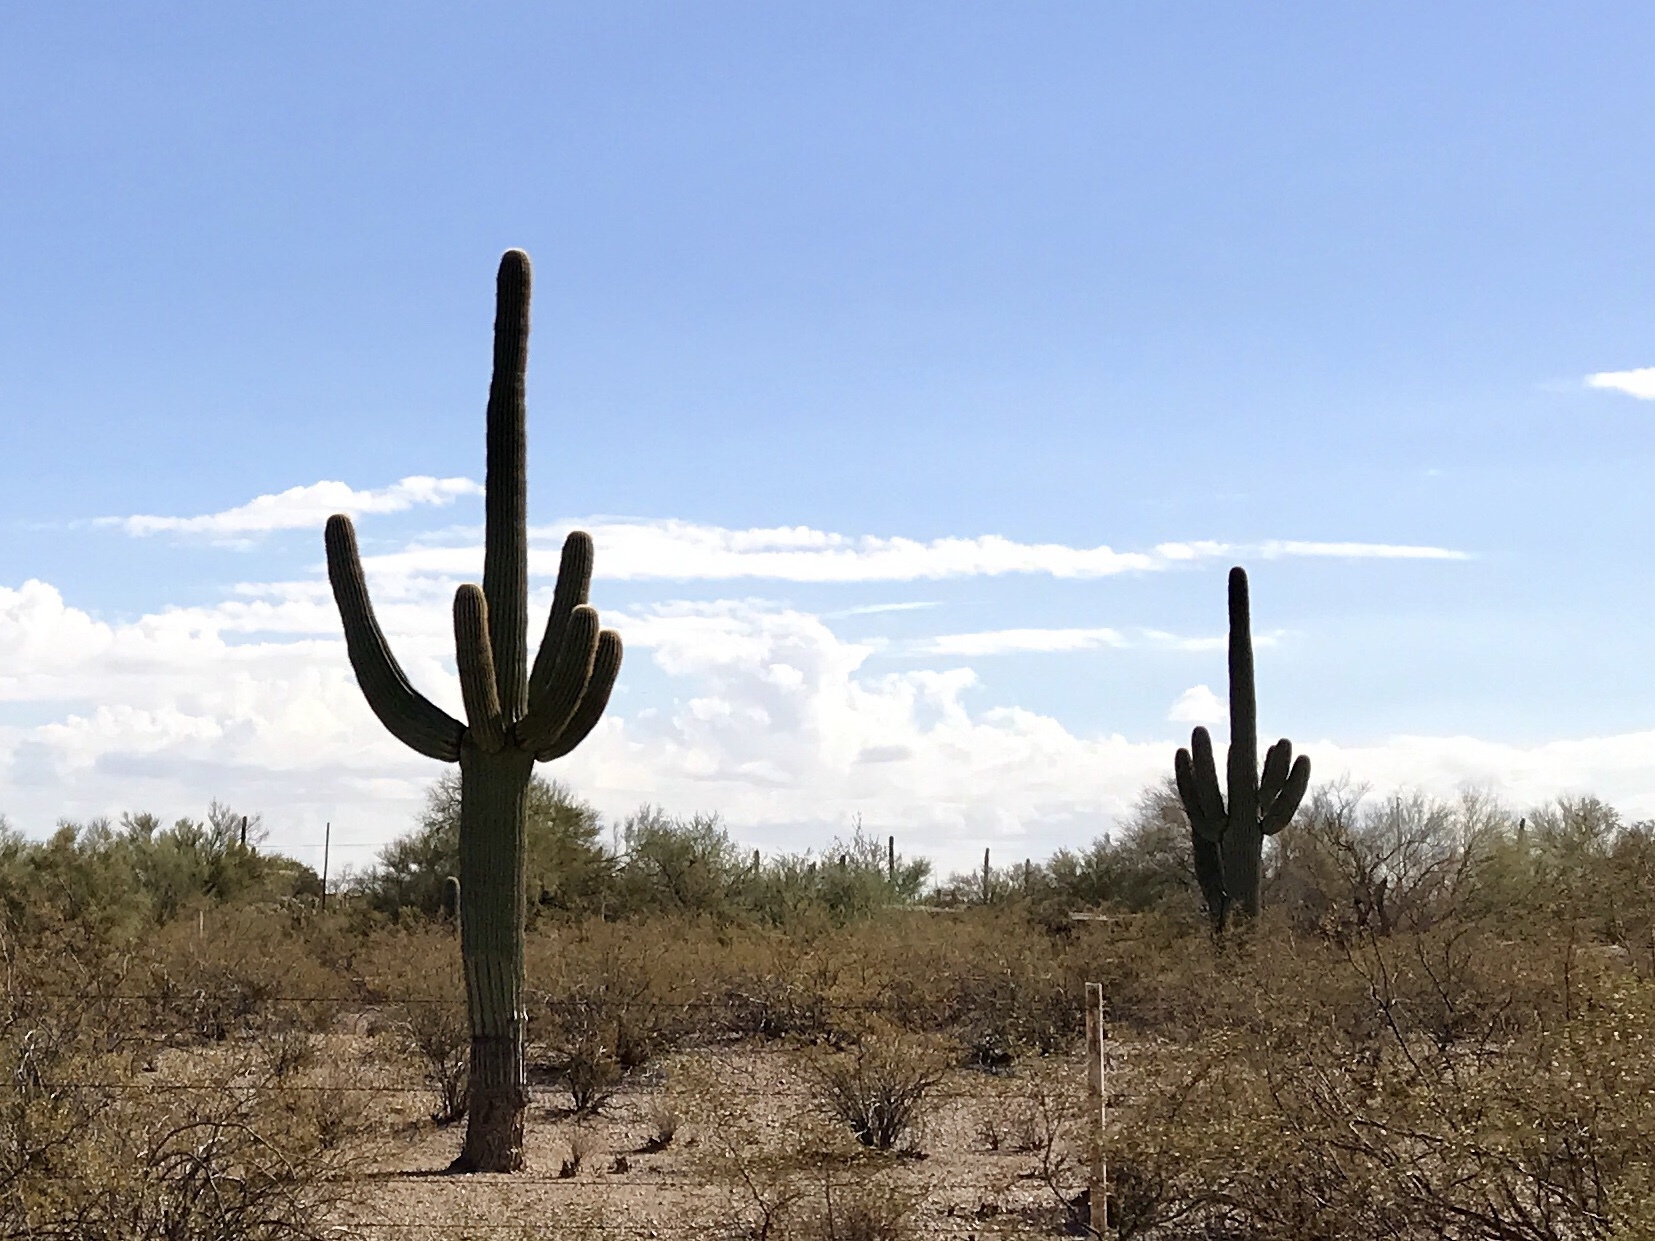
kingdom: Plantae
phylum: Tracheophyta
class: Magnoliopsida
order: Caryophyllales
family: Cactaceae
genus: Carnegiea
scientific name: Carnegiea gigantea
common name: Saguaro
